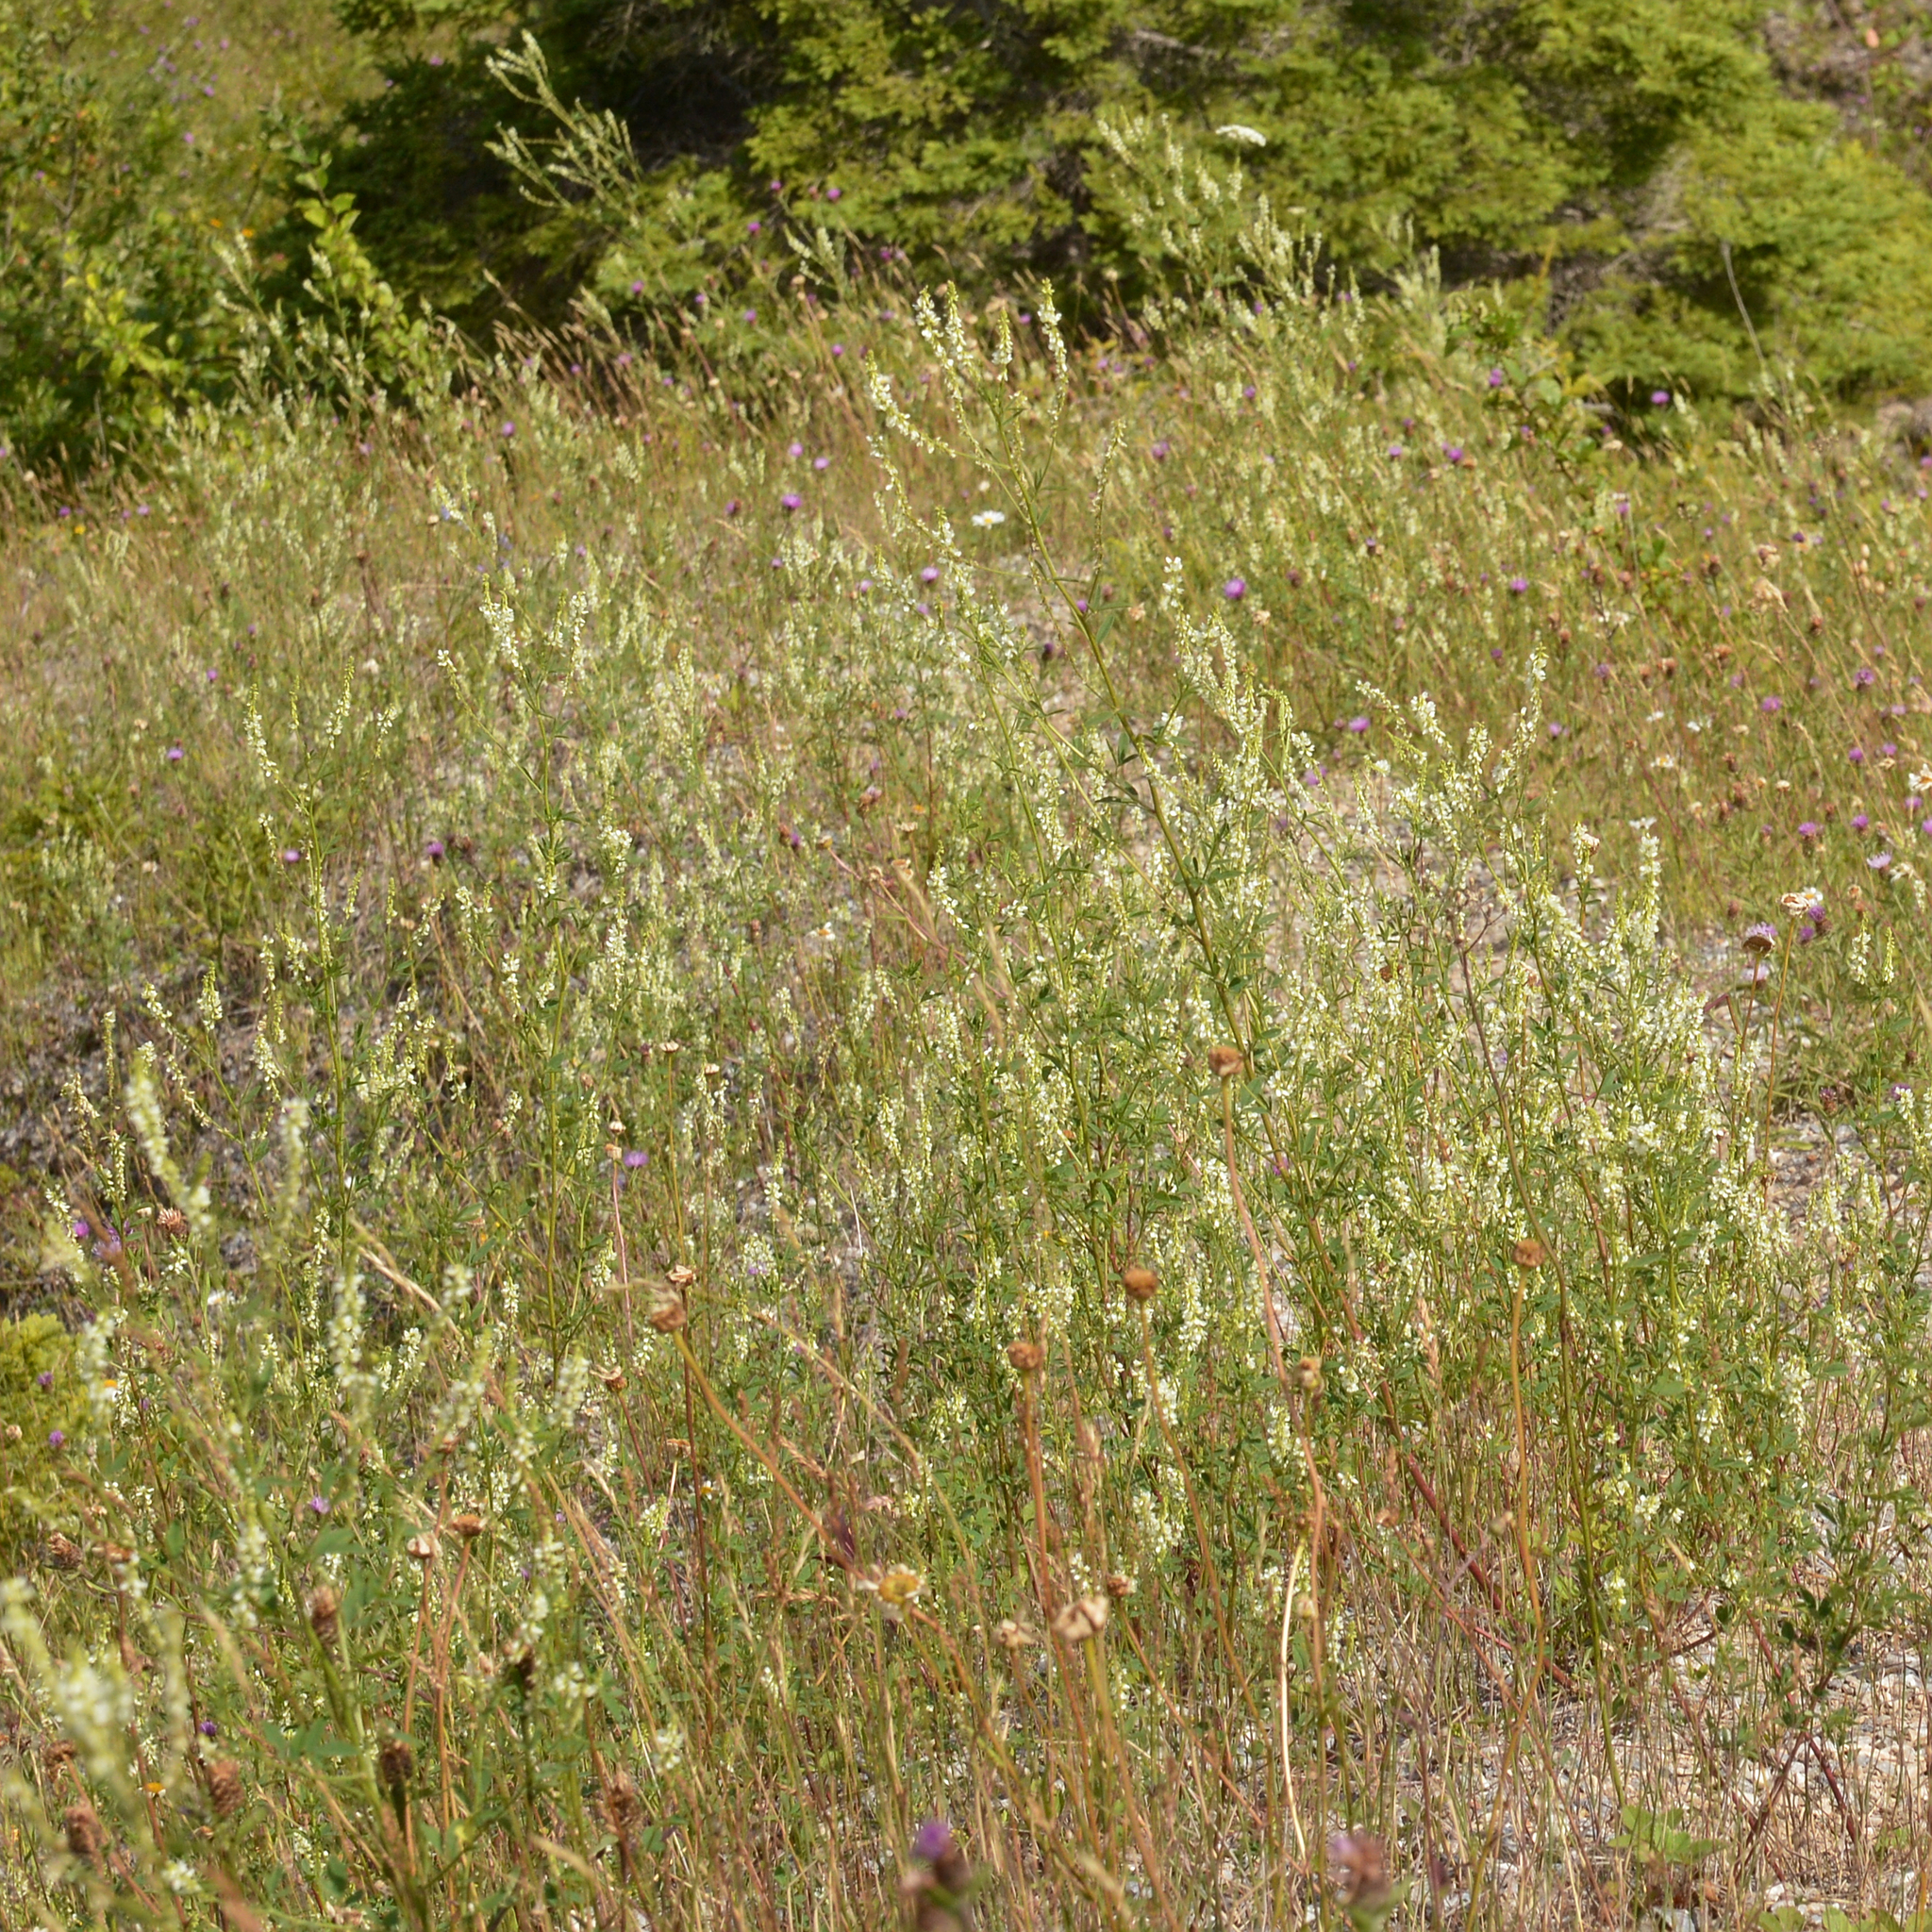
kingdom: Plantae
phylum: Tracheophyta
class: Magnoliopsida
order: Fabales
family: Fabaceae
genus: Melilotus
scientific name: Melilotus albus
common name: White melilot
